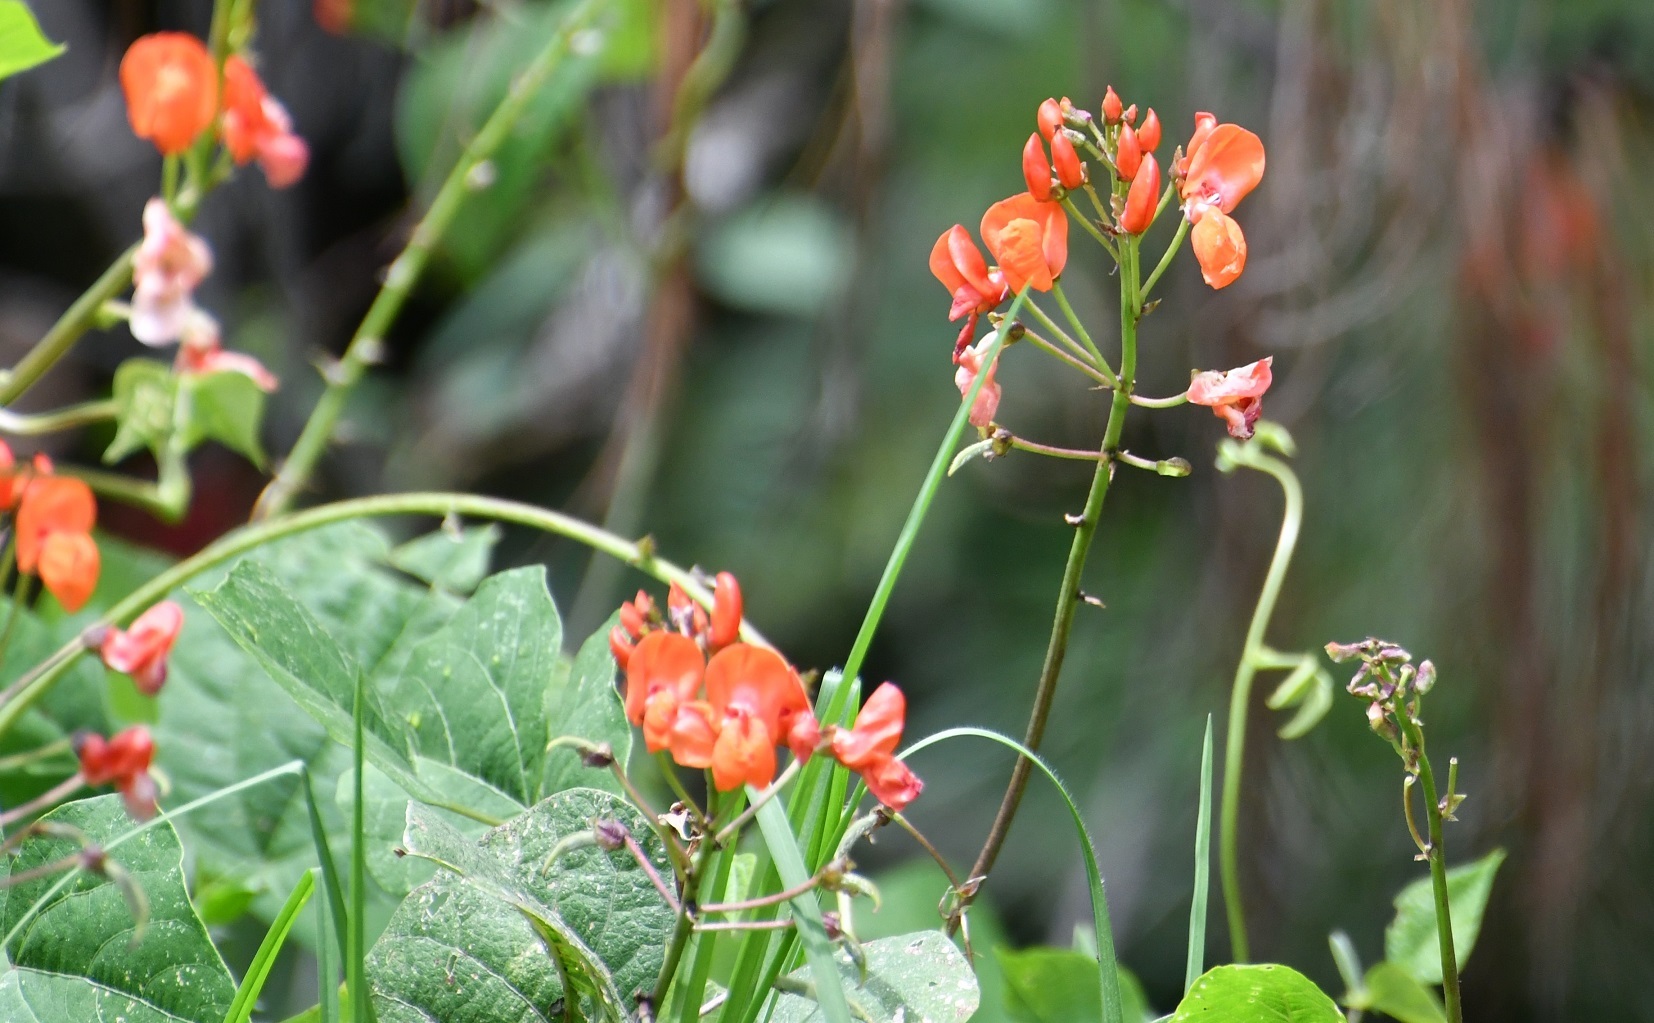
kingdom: Plantae
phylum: Tracheophyta
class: Magnoliopsida
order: Fabales
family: Fabaceae
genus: Phaseolus
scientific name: Phaseolus coccineus
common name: Runner bean
